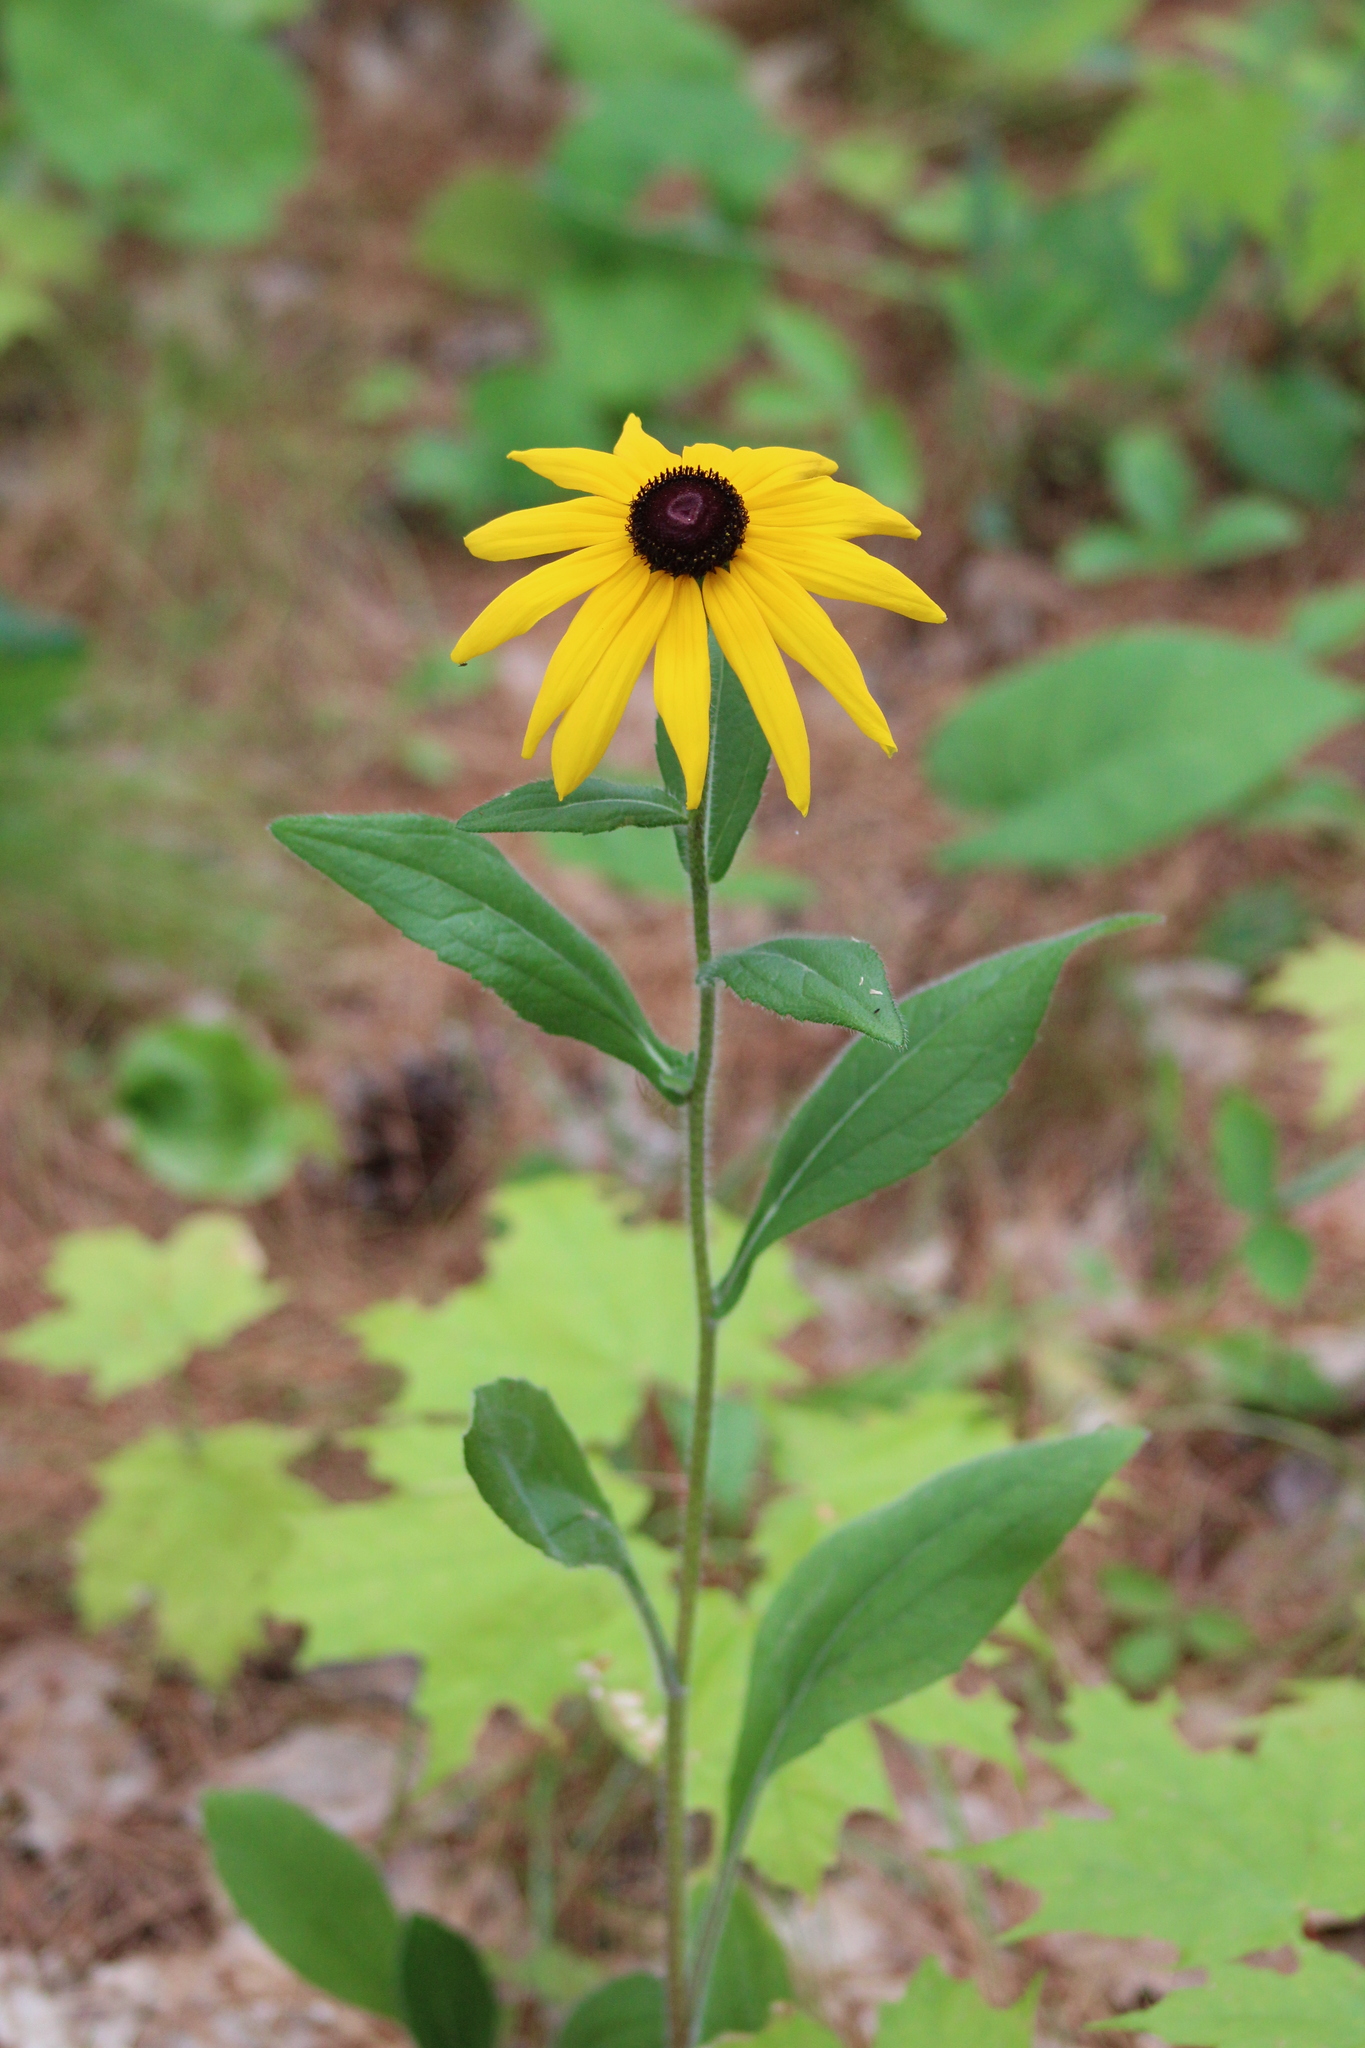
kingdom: Plantae
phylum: Tracheophyta
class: Magnoliopsida
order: Asterales
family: Asteraceae
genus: Rudbeckia
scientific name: Rudbeckia hirta
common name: Black-eyed-susan
